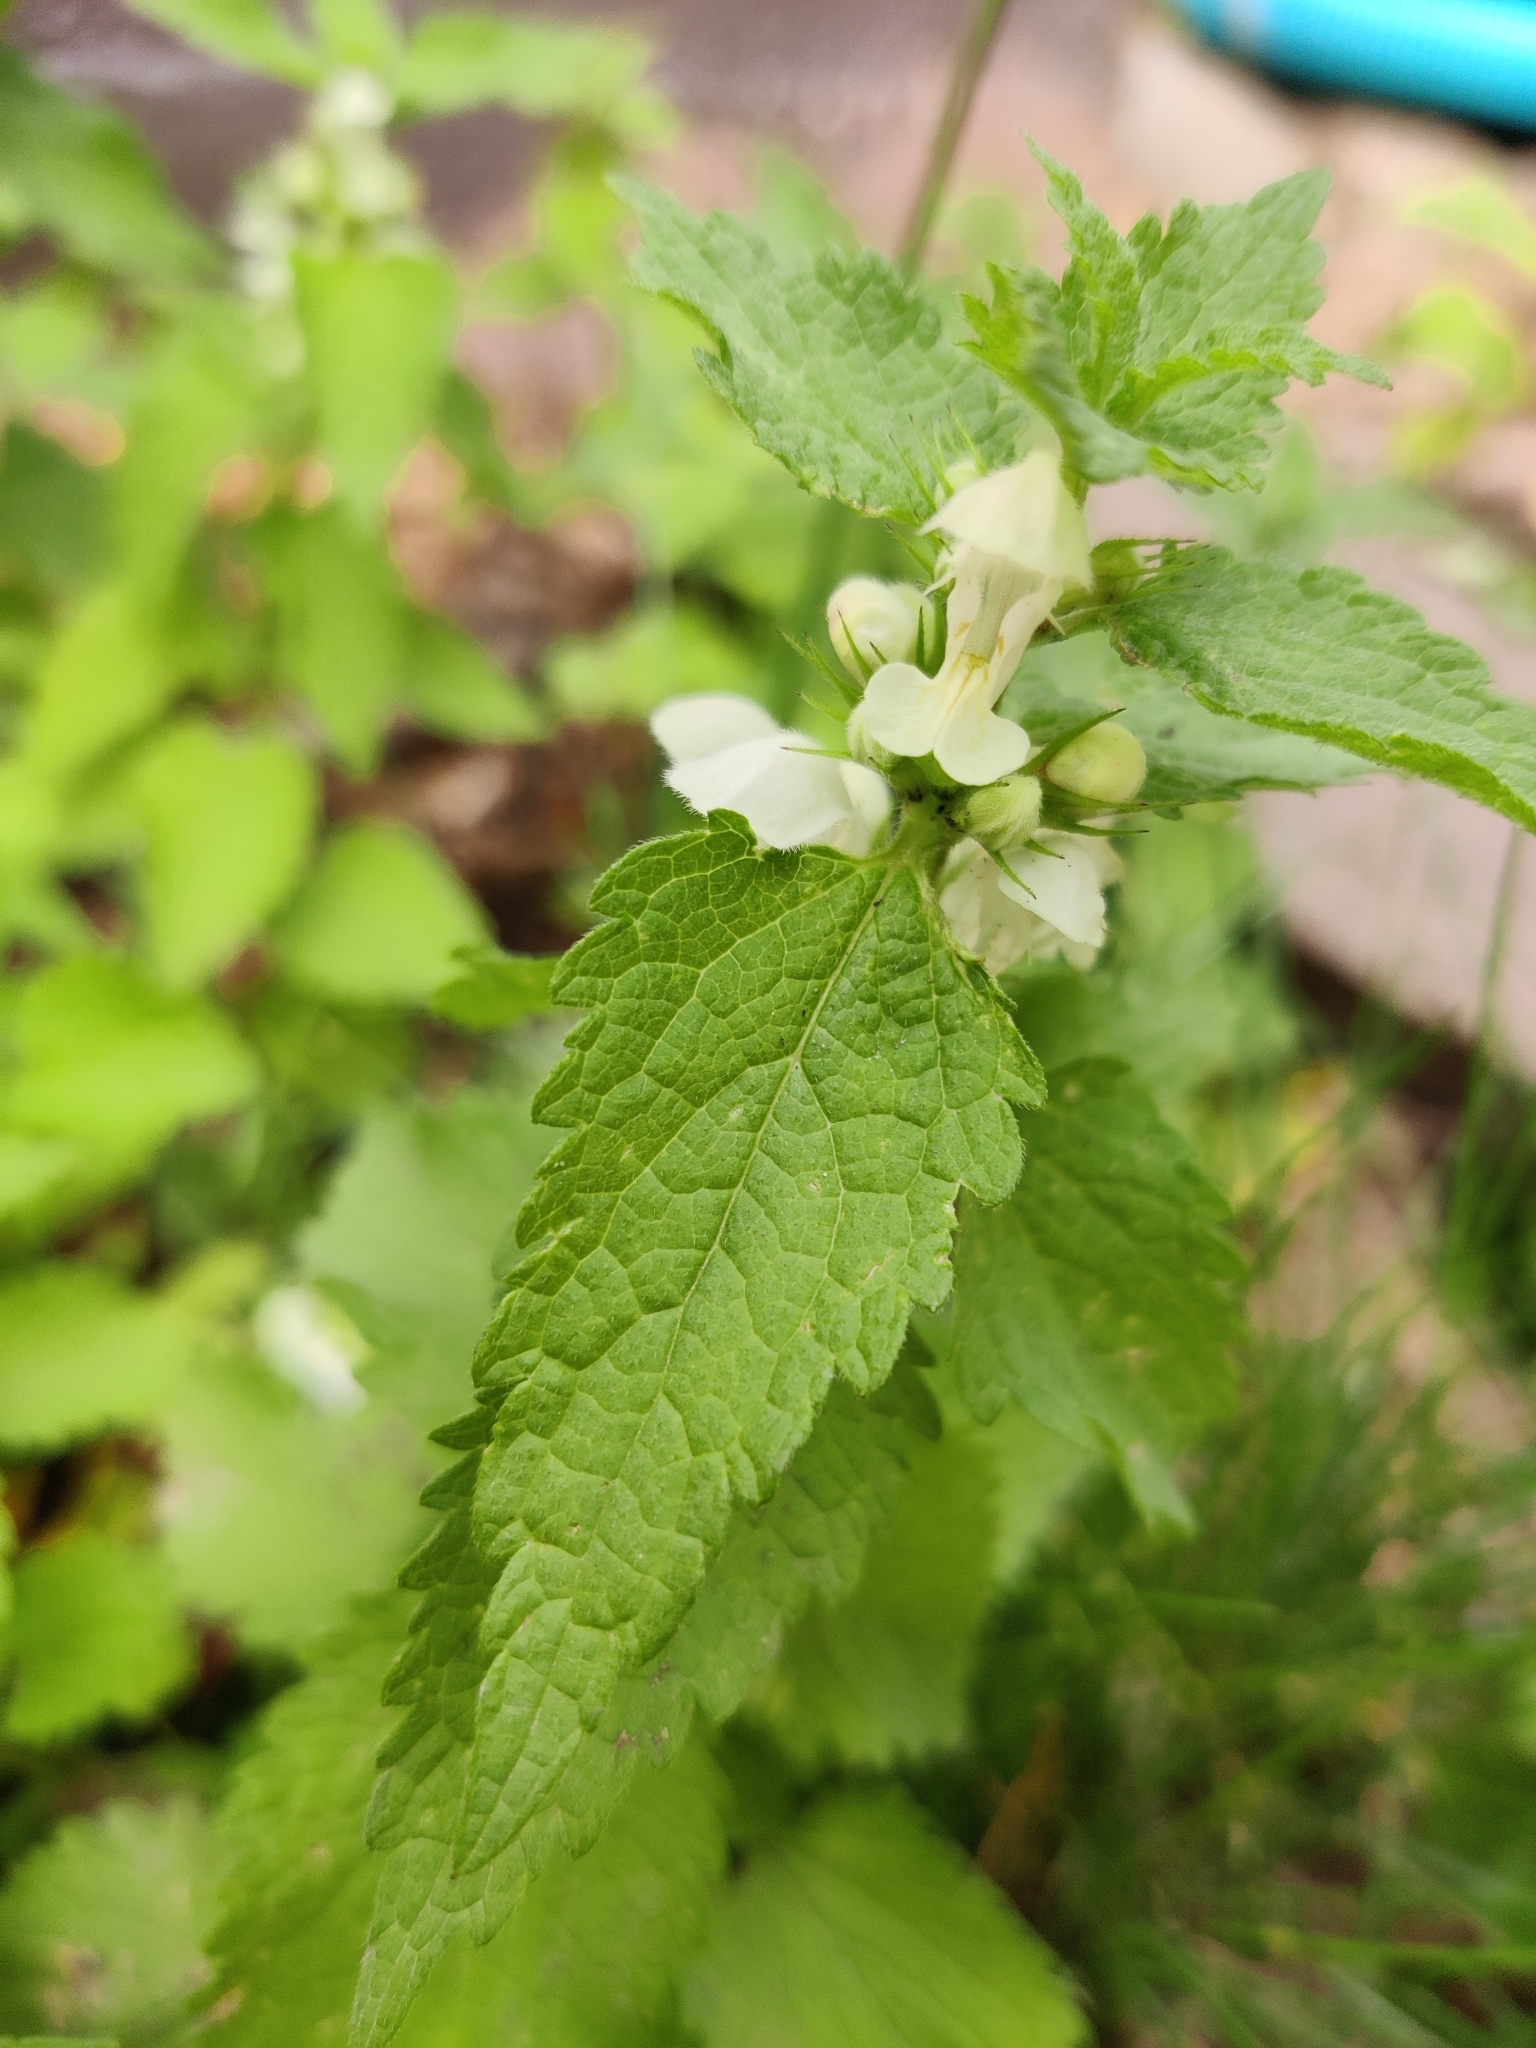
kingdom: Plantae
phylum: Tracheophyta
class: Magnoliopsida
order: Lamiales
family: Lamiaceae
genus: Lamium
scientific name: Lamium album
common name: White dead-nettle
